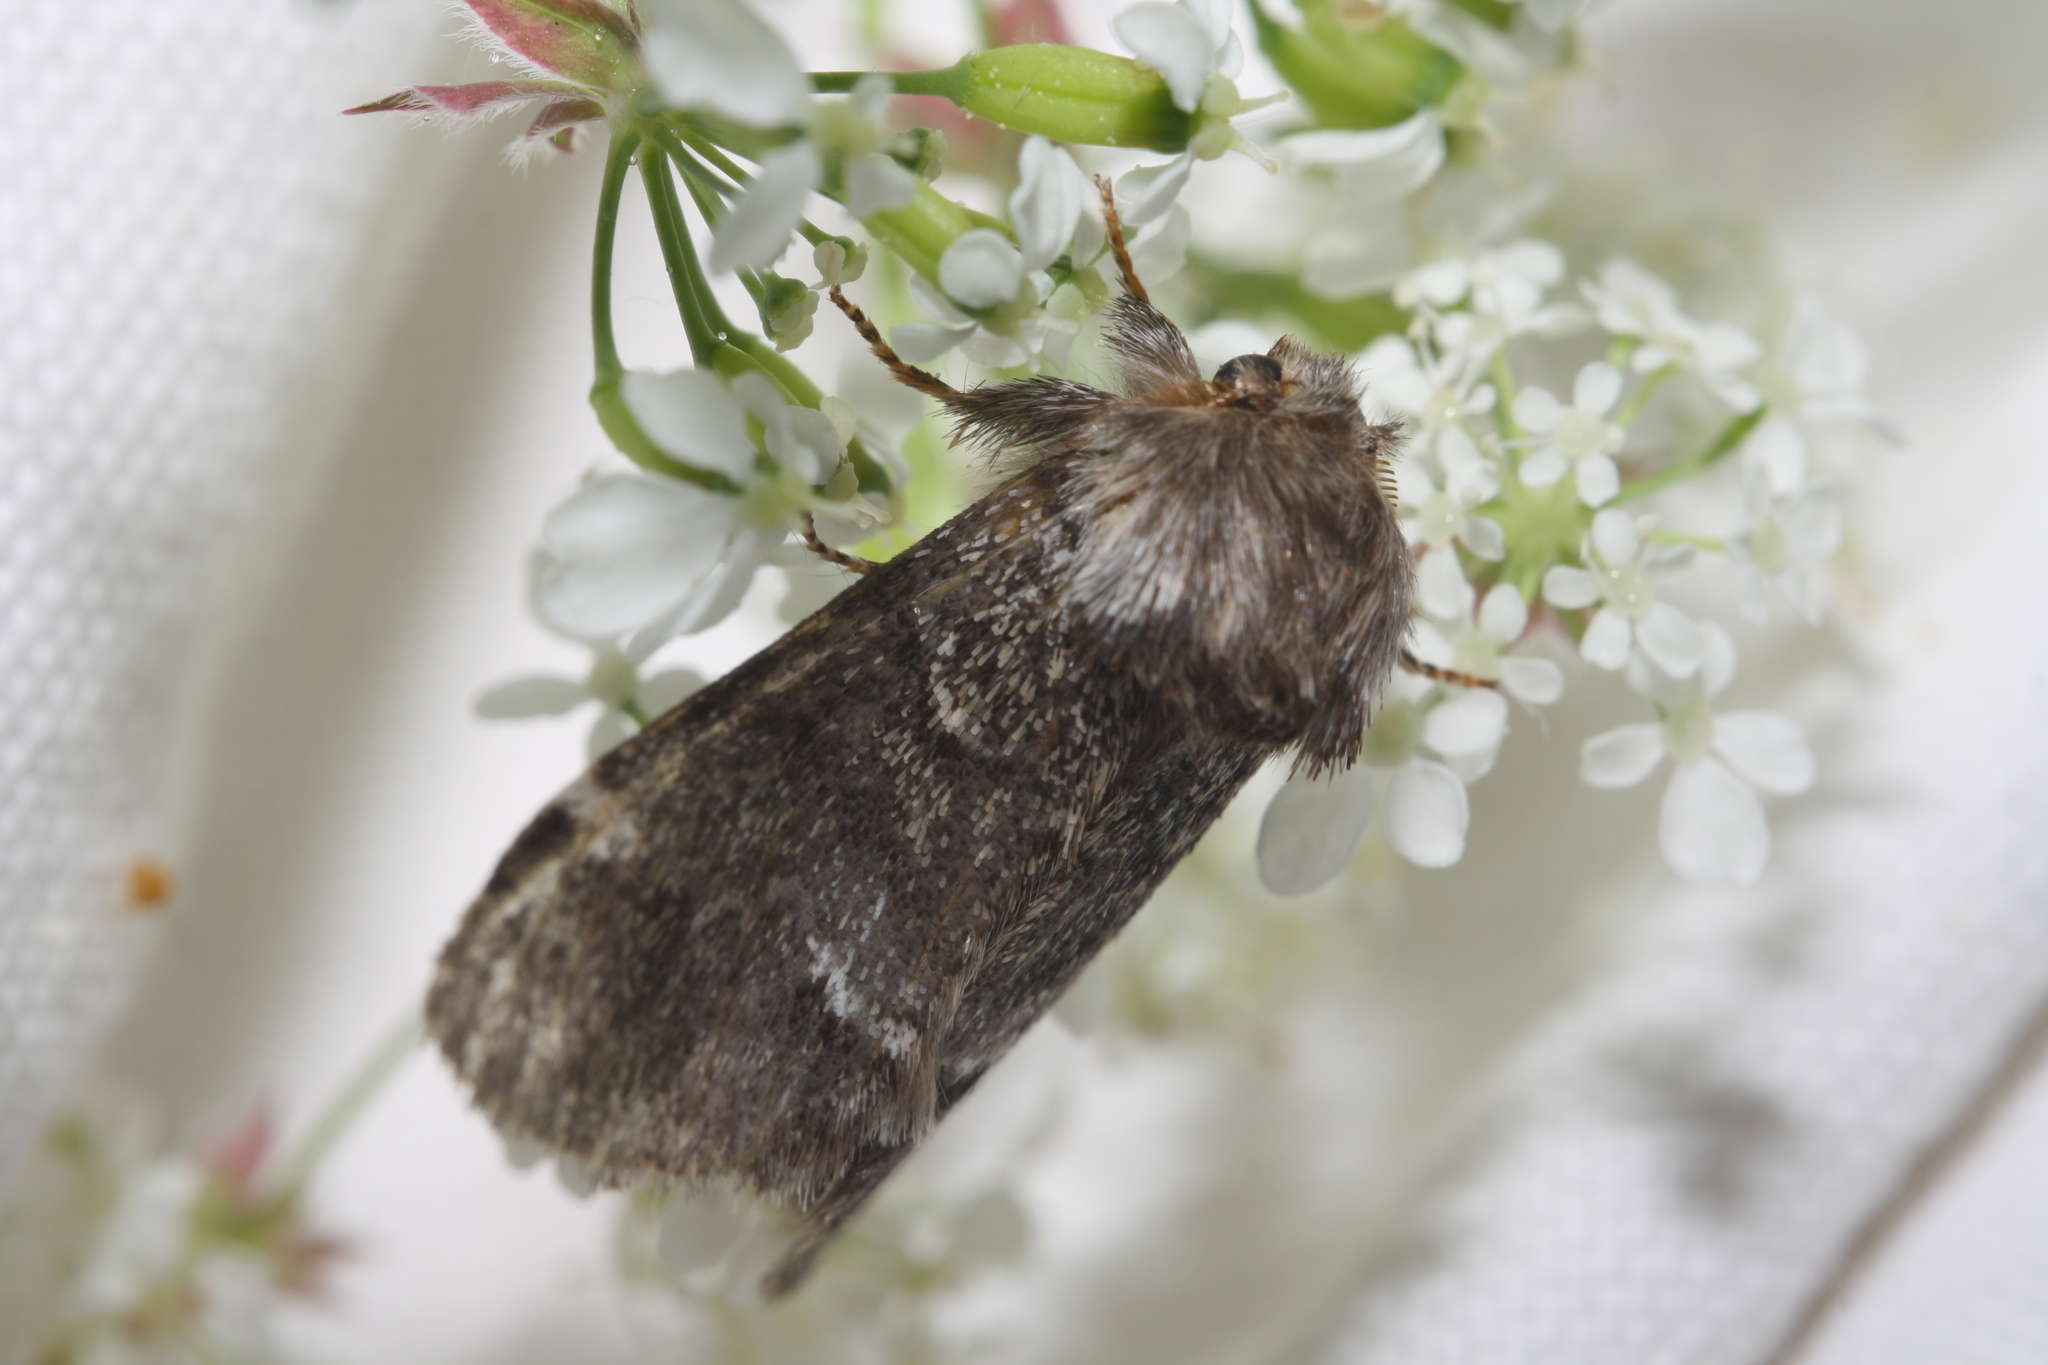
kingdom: Animalia
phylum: Arthropoda
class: Insecta
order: Lepidoptera
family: Notodontidae
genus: Drymonia
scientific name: Drymonia dodonaea
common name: Marbled brown
